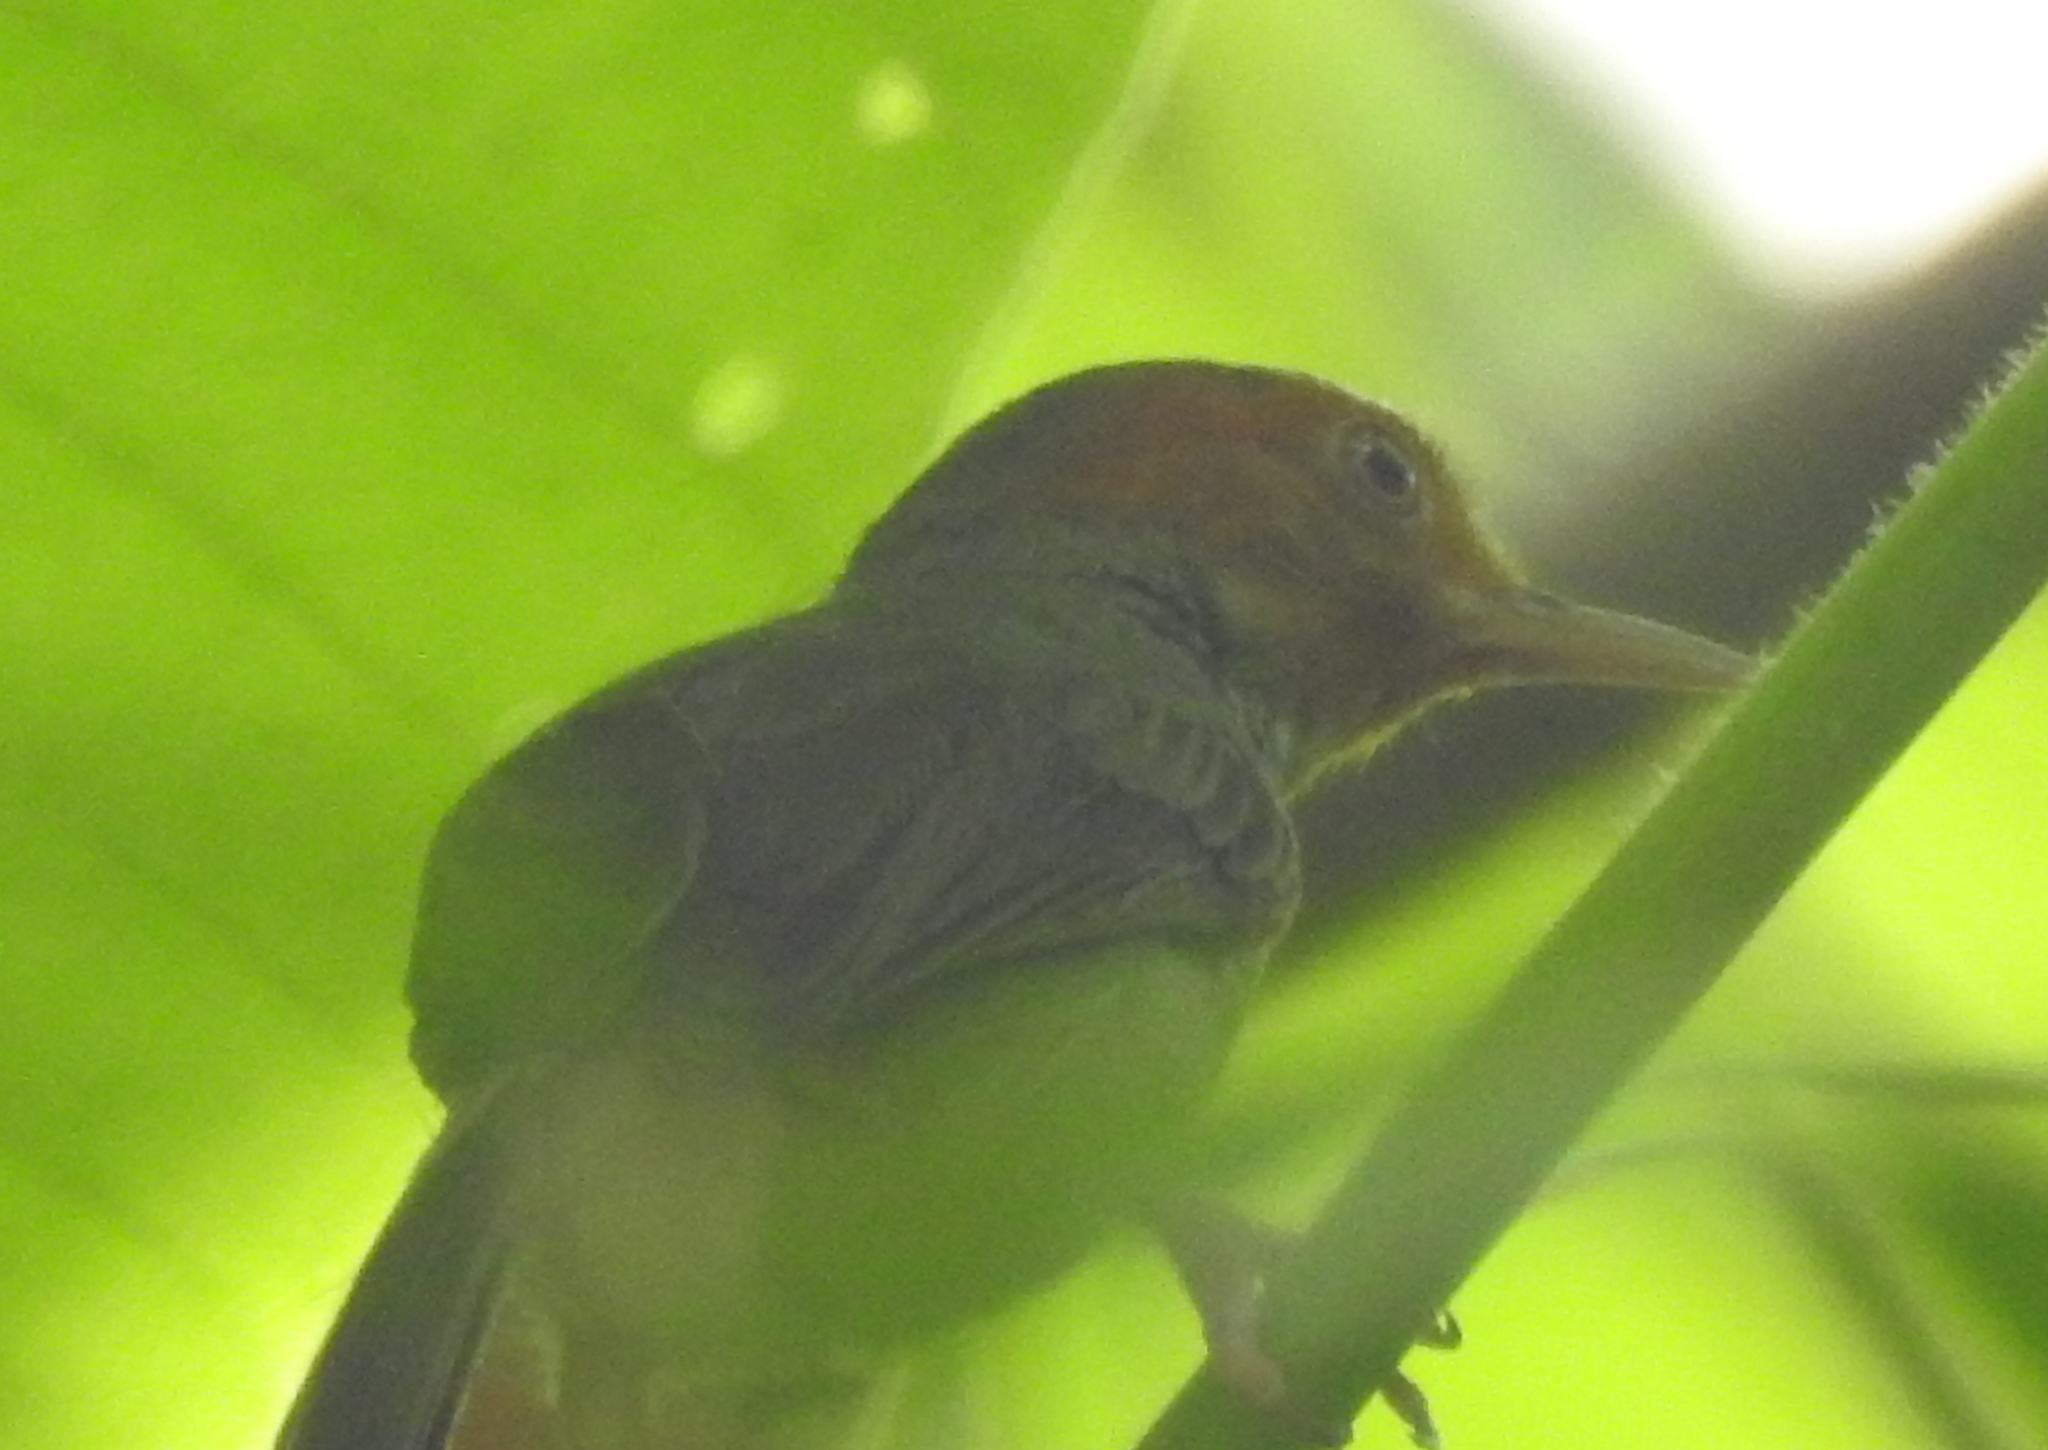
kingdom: Animalia
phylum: Chordata
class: Aves
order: Passeriformes
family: Cisticolidae
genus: Orthotomus
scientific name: Orthotomus ruficeps
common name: Ashy tailorbird
